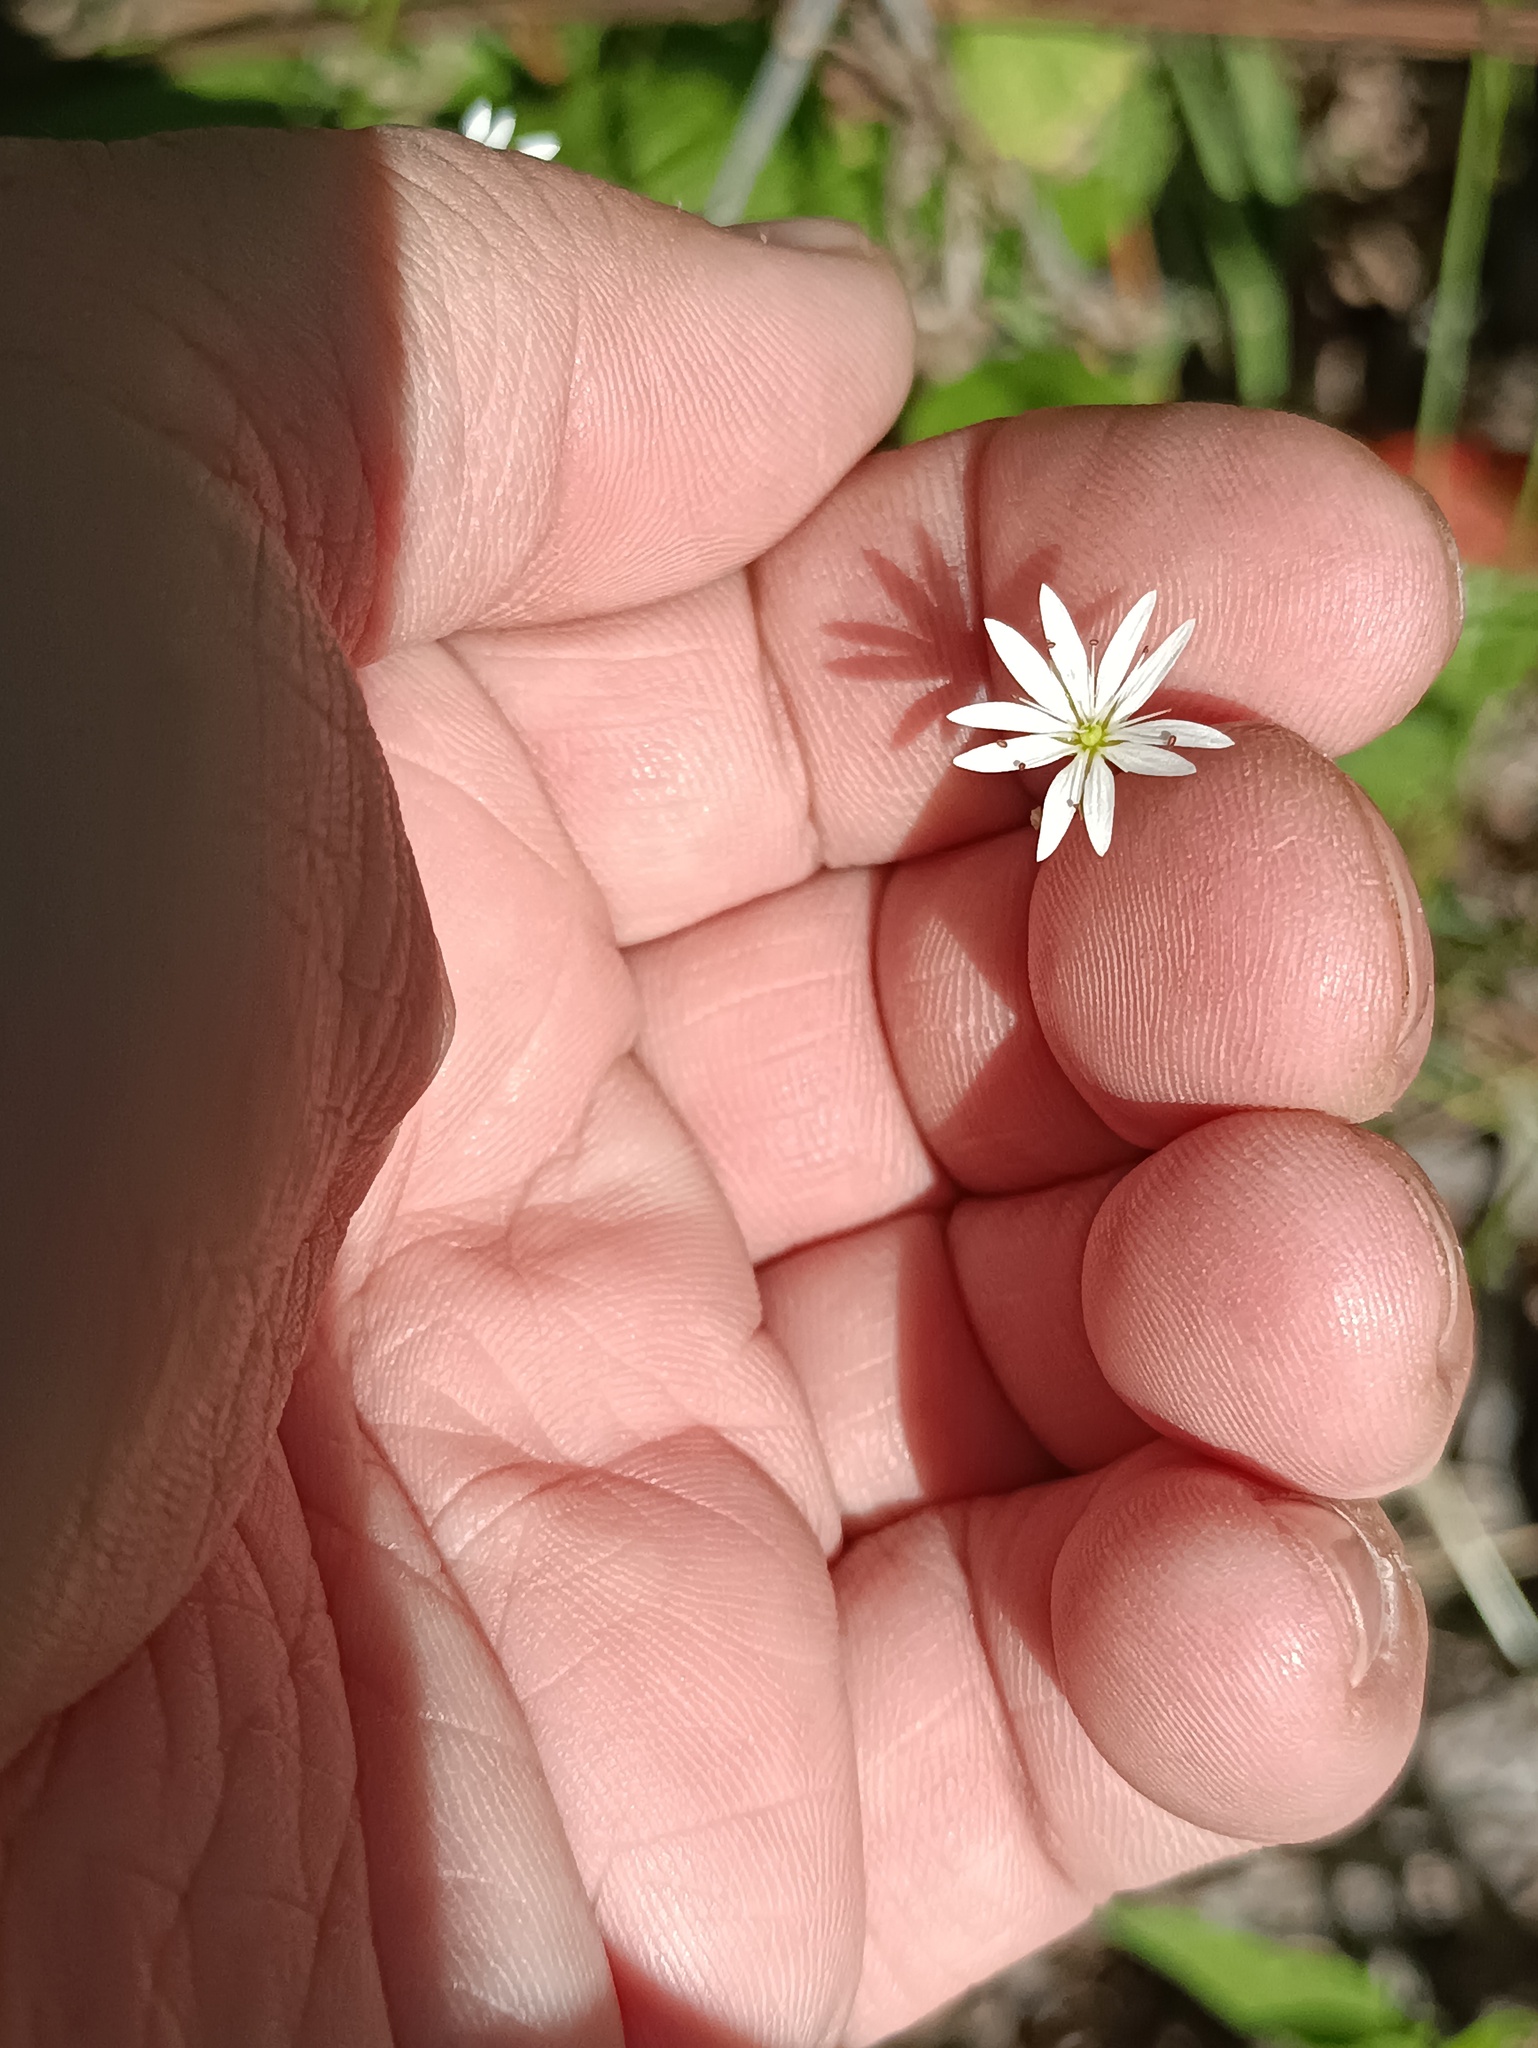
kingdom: Plantae
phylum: Tracheophyta
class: Magnoliopsida
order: Caryophyllales
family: Caryophyllaceae
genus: Stellaria
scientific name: Stellaria graminea
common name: Grass-like starwort
